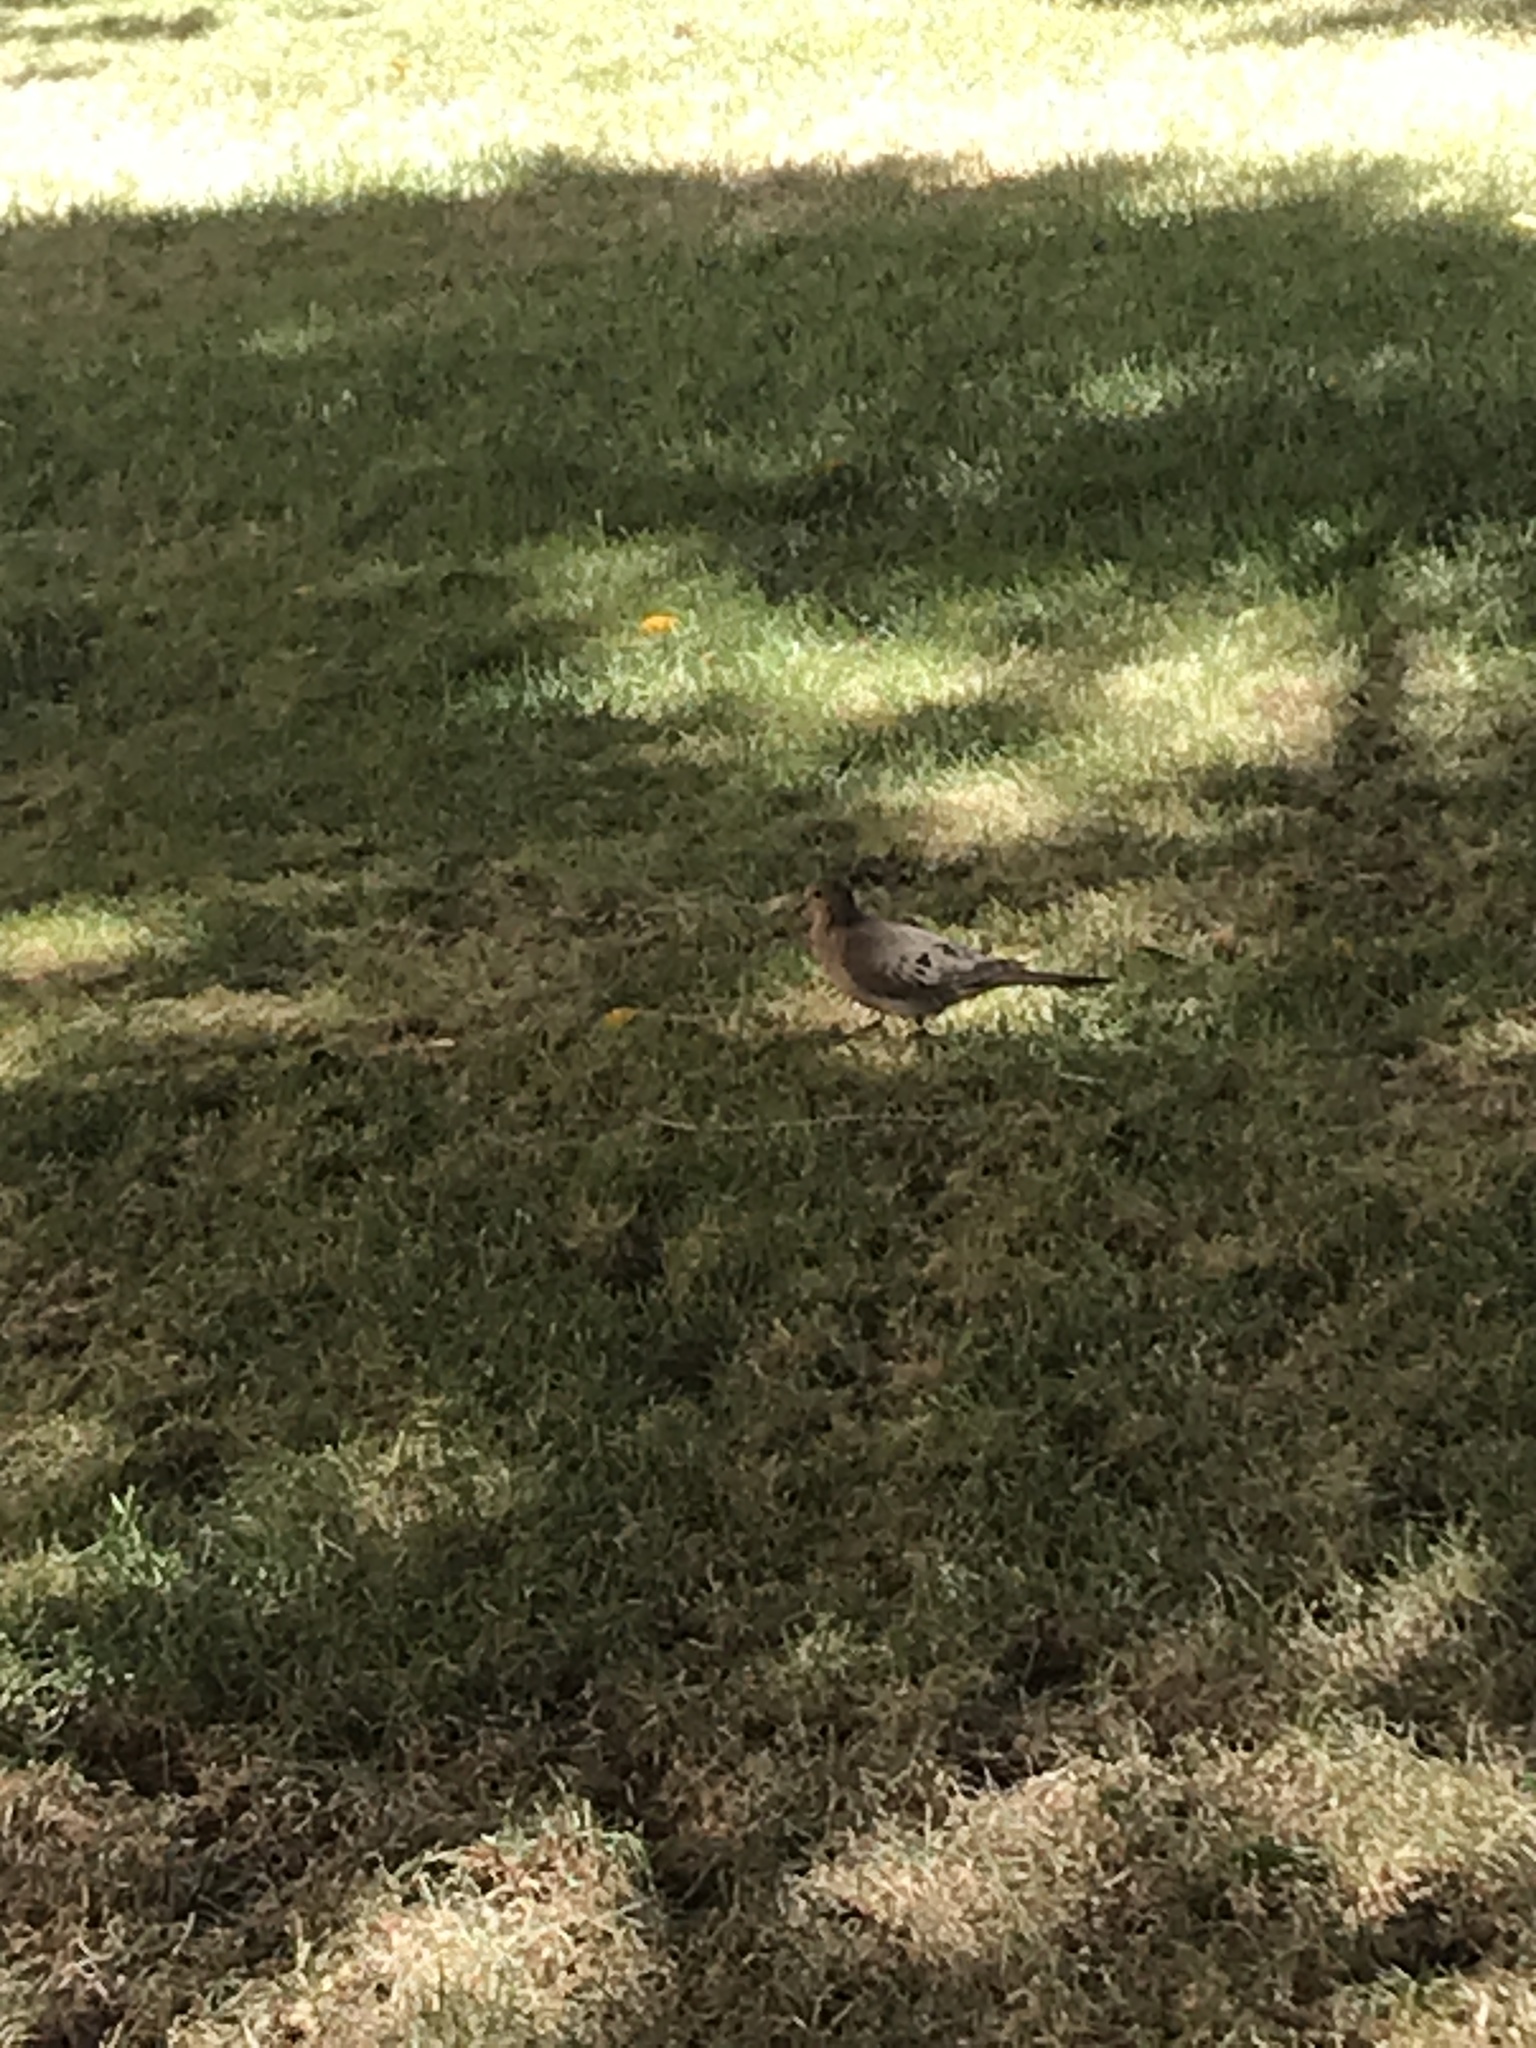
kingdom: Animalia
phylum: Chordata
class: Aves
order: Columbiformes
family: Columbidae
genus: Zenaida
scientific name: Zenaida macroura
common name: Mourning dove
